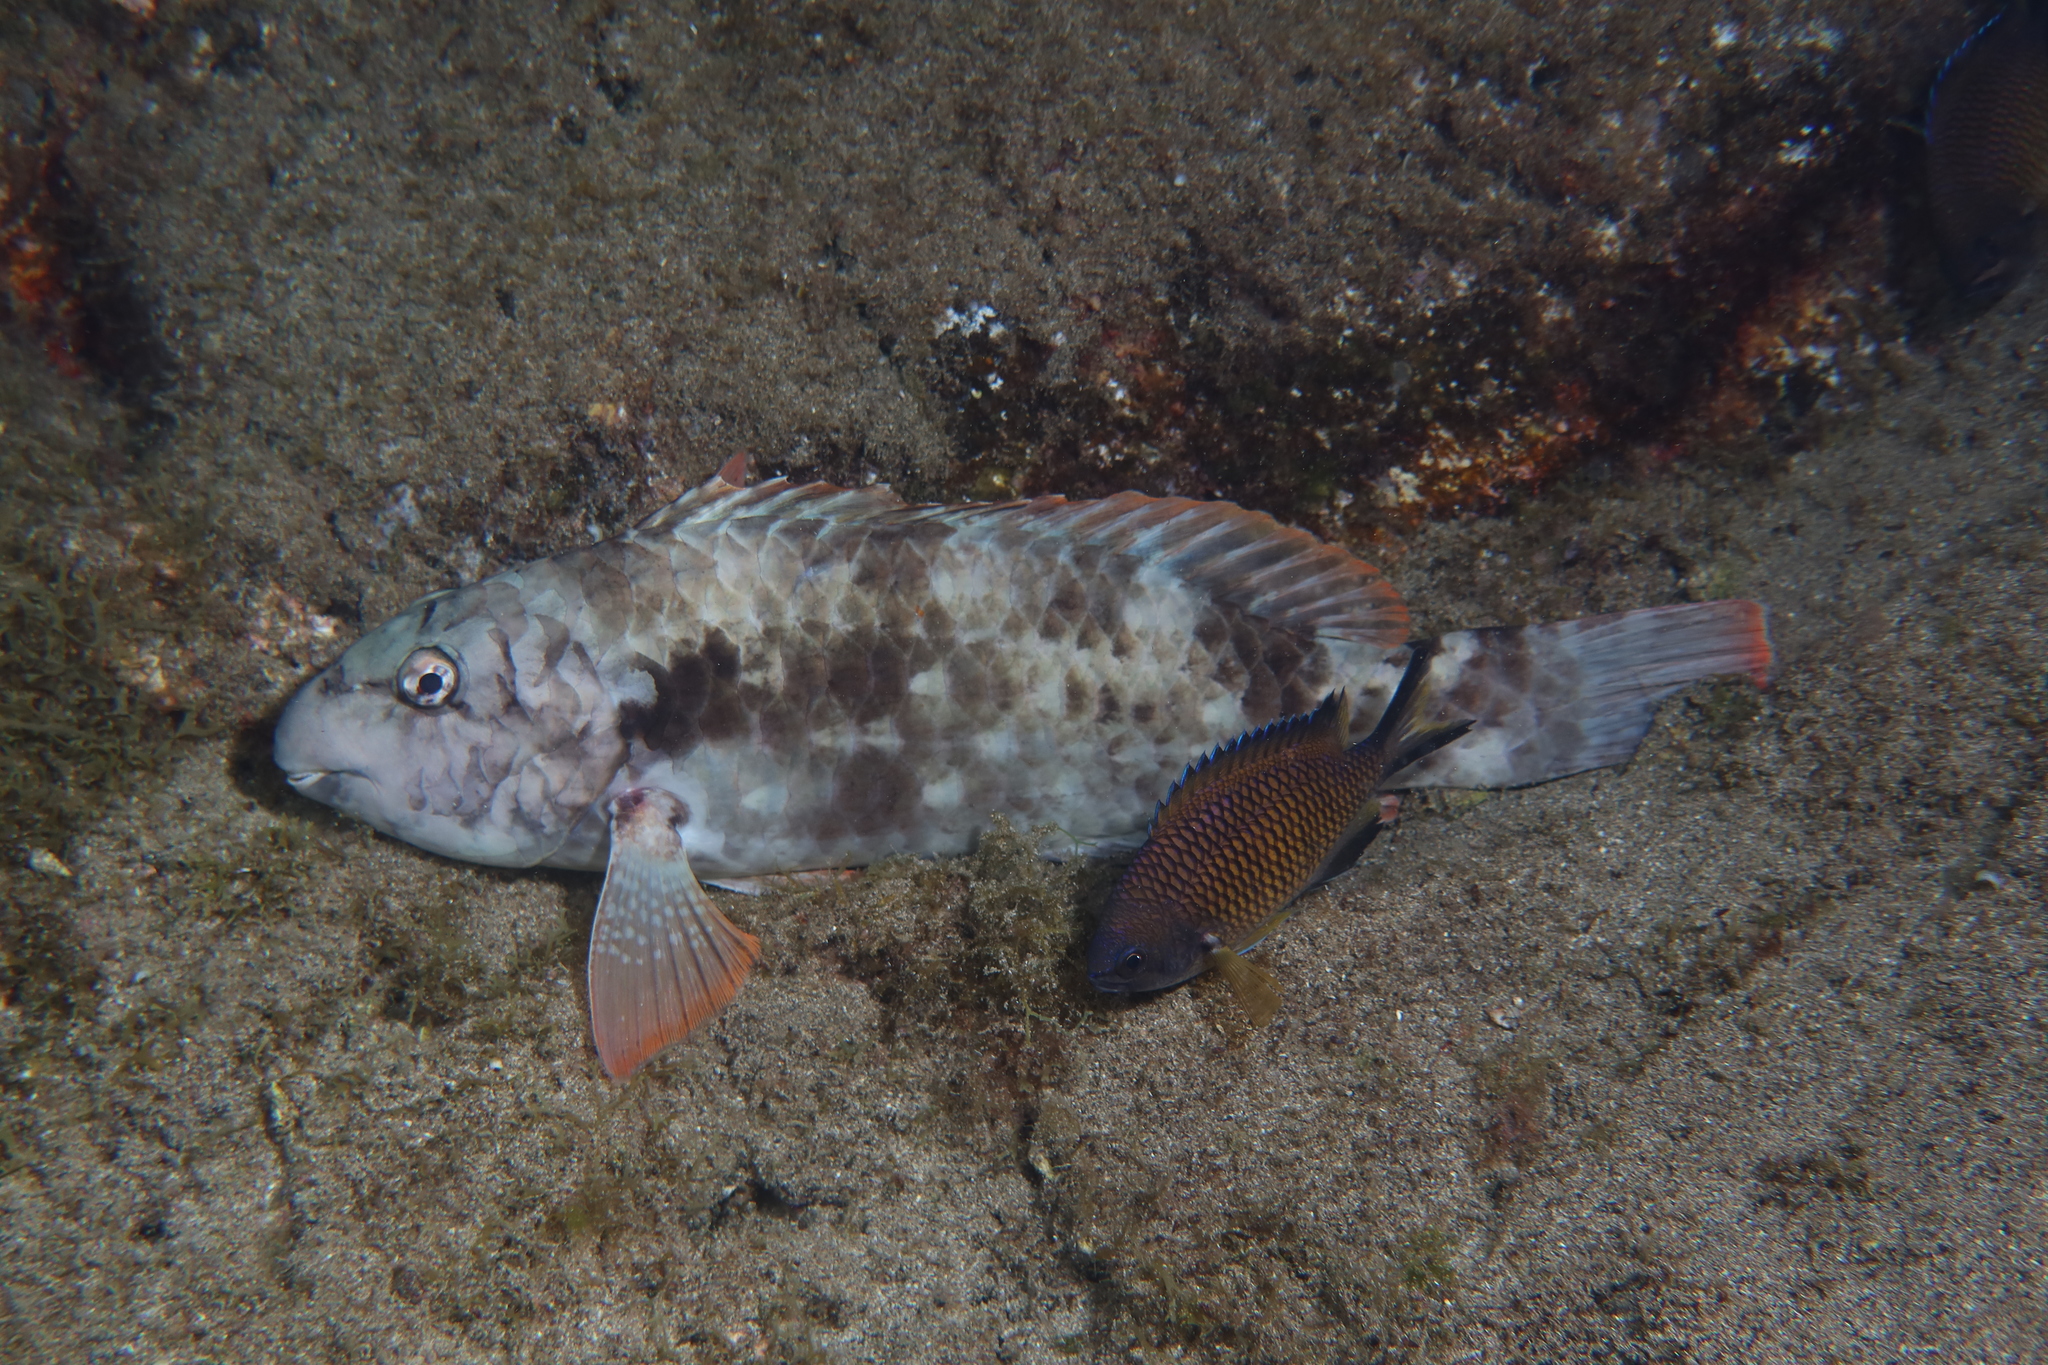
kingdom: Animalia
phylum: Chordata
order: Perciformes
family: Scaridae
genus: Sparisoma
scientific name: Sparisoma cretense
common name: Parrotfish
